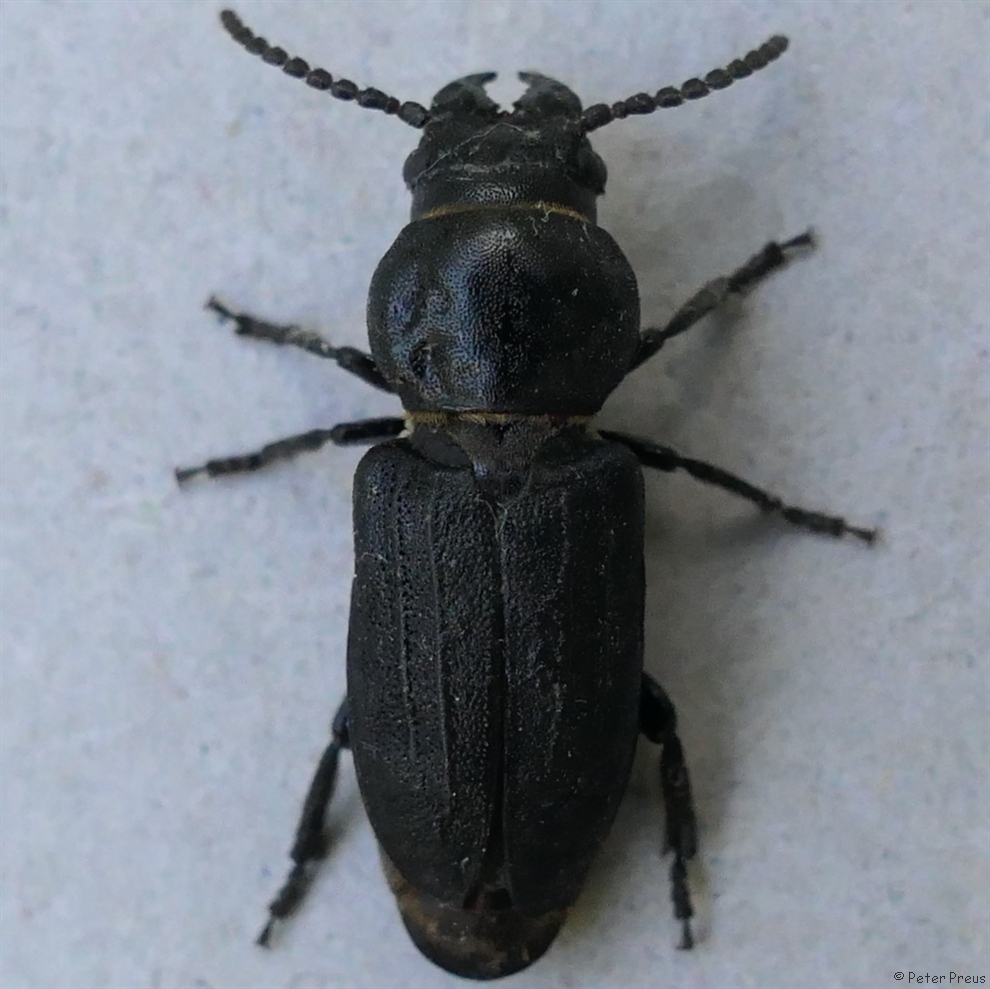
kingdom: Animalia
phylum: Arthropoda
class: Insecta
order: Coleoptera
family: Cerambycidae
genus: Spondylis
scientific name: Spondylis buprestoides
